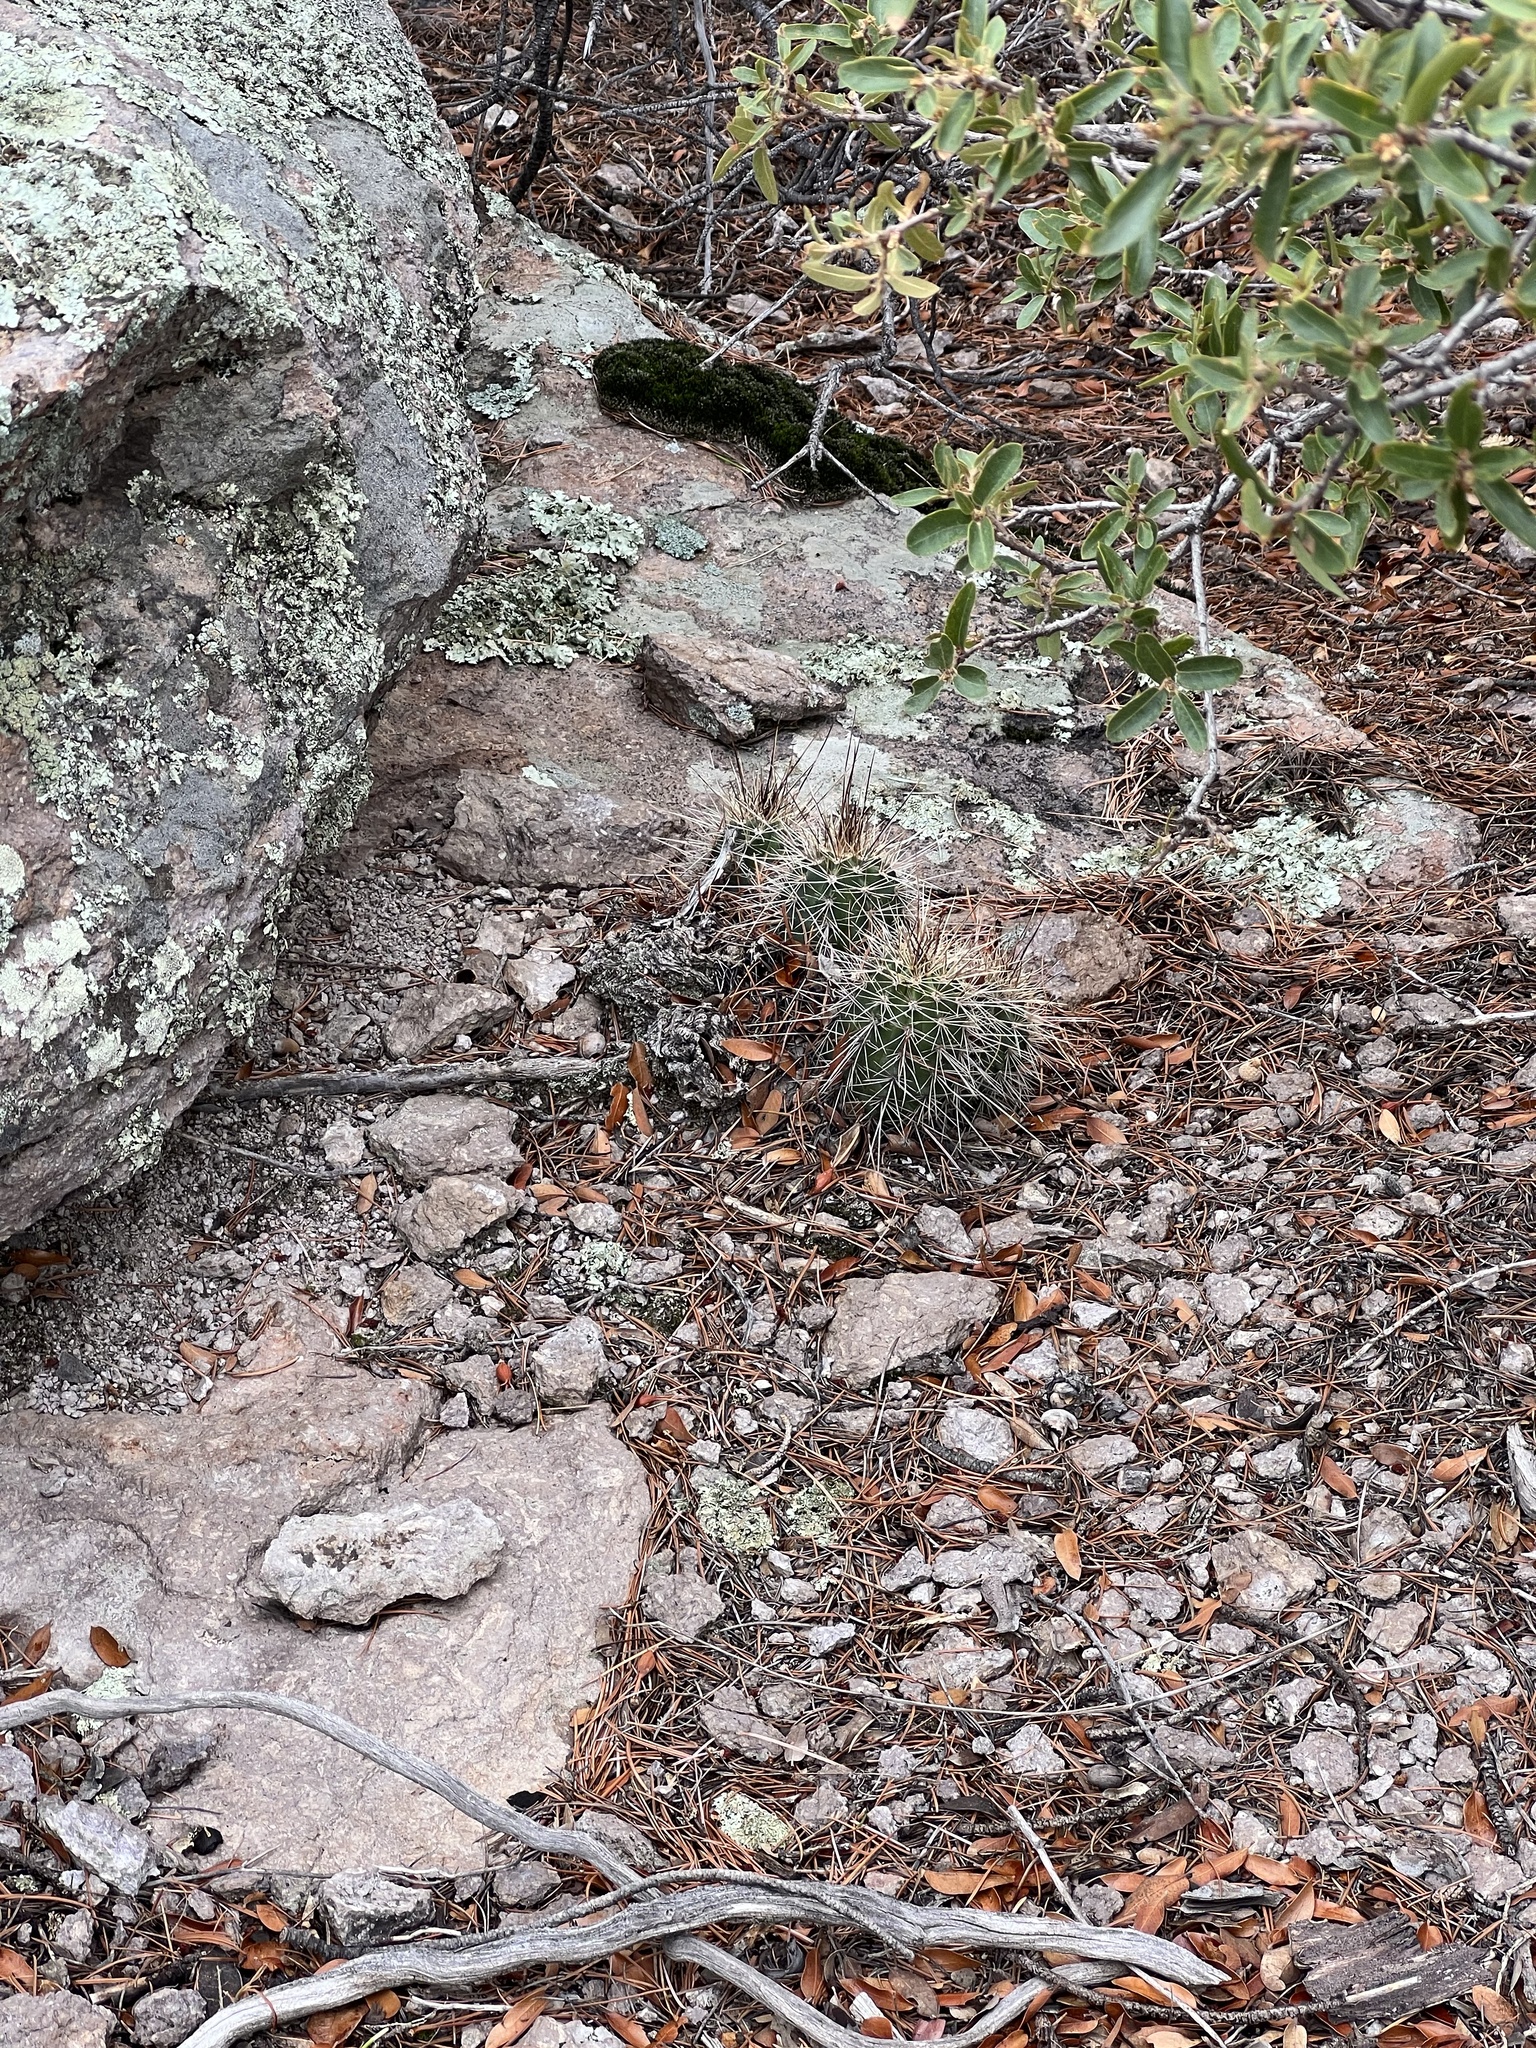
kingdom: Plantae
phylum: Tracheophyta
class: Magnoliopsida
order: Caryophyllales
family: Cactaceae
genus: Echinocereus
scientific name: Echinocereus coccineus
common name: Scarlet hedgehog cactus
